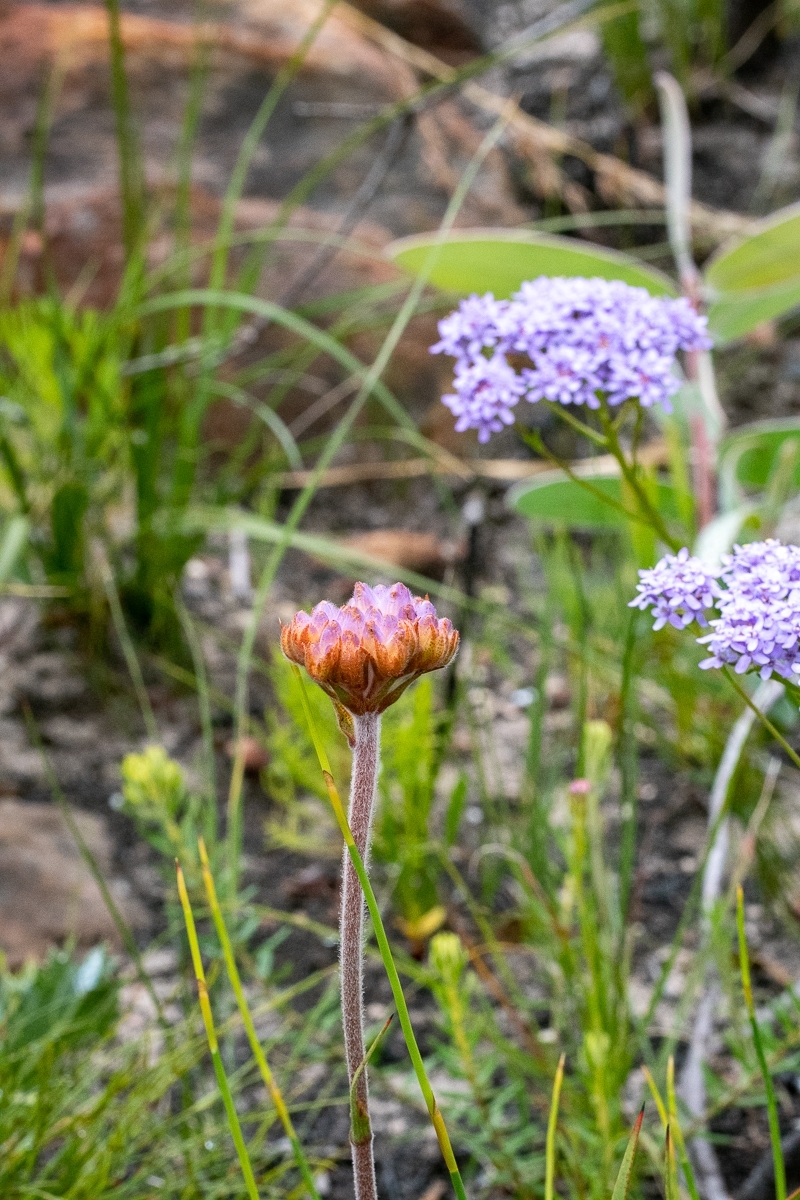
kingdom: Plantae
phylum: Tracheophyta
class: Liliopsida
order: Commelinales
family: Haemodoraceae
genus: Dilatris
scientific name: Dilatris pillansii
